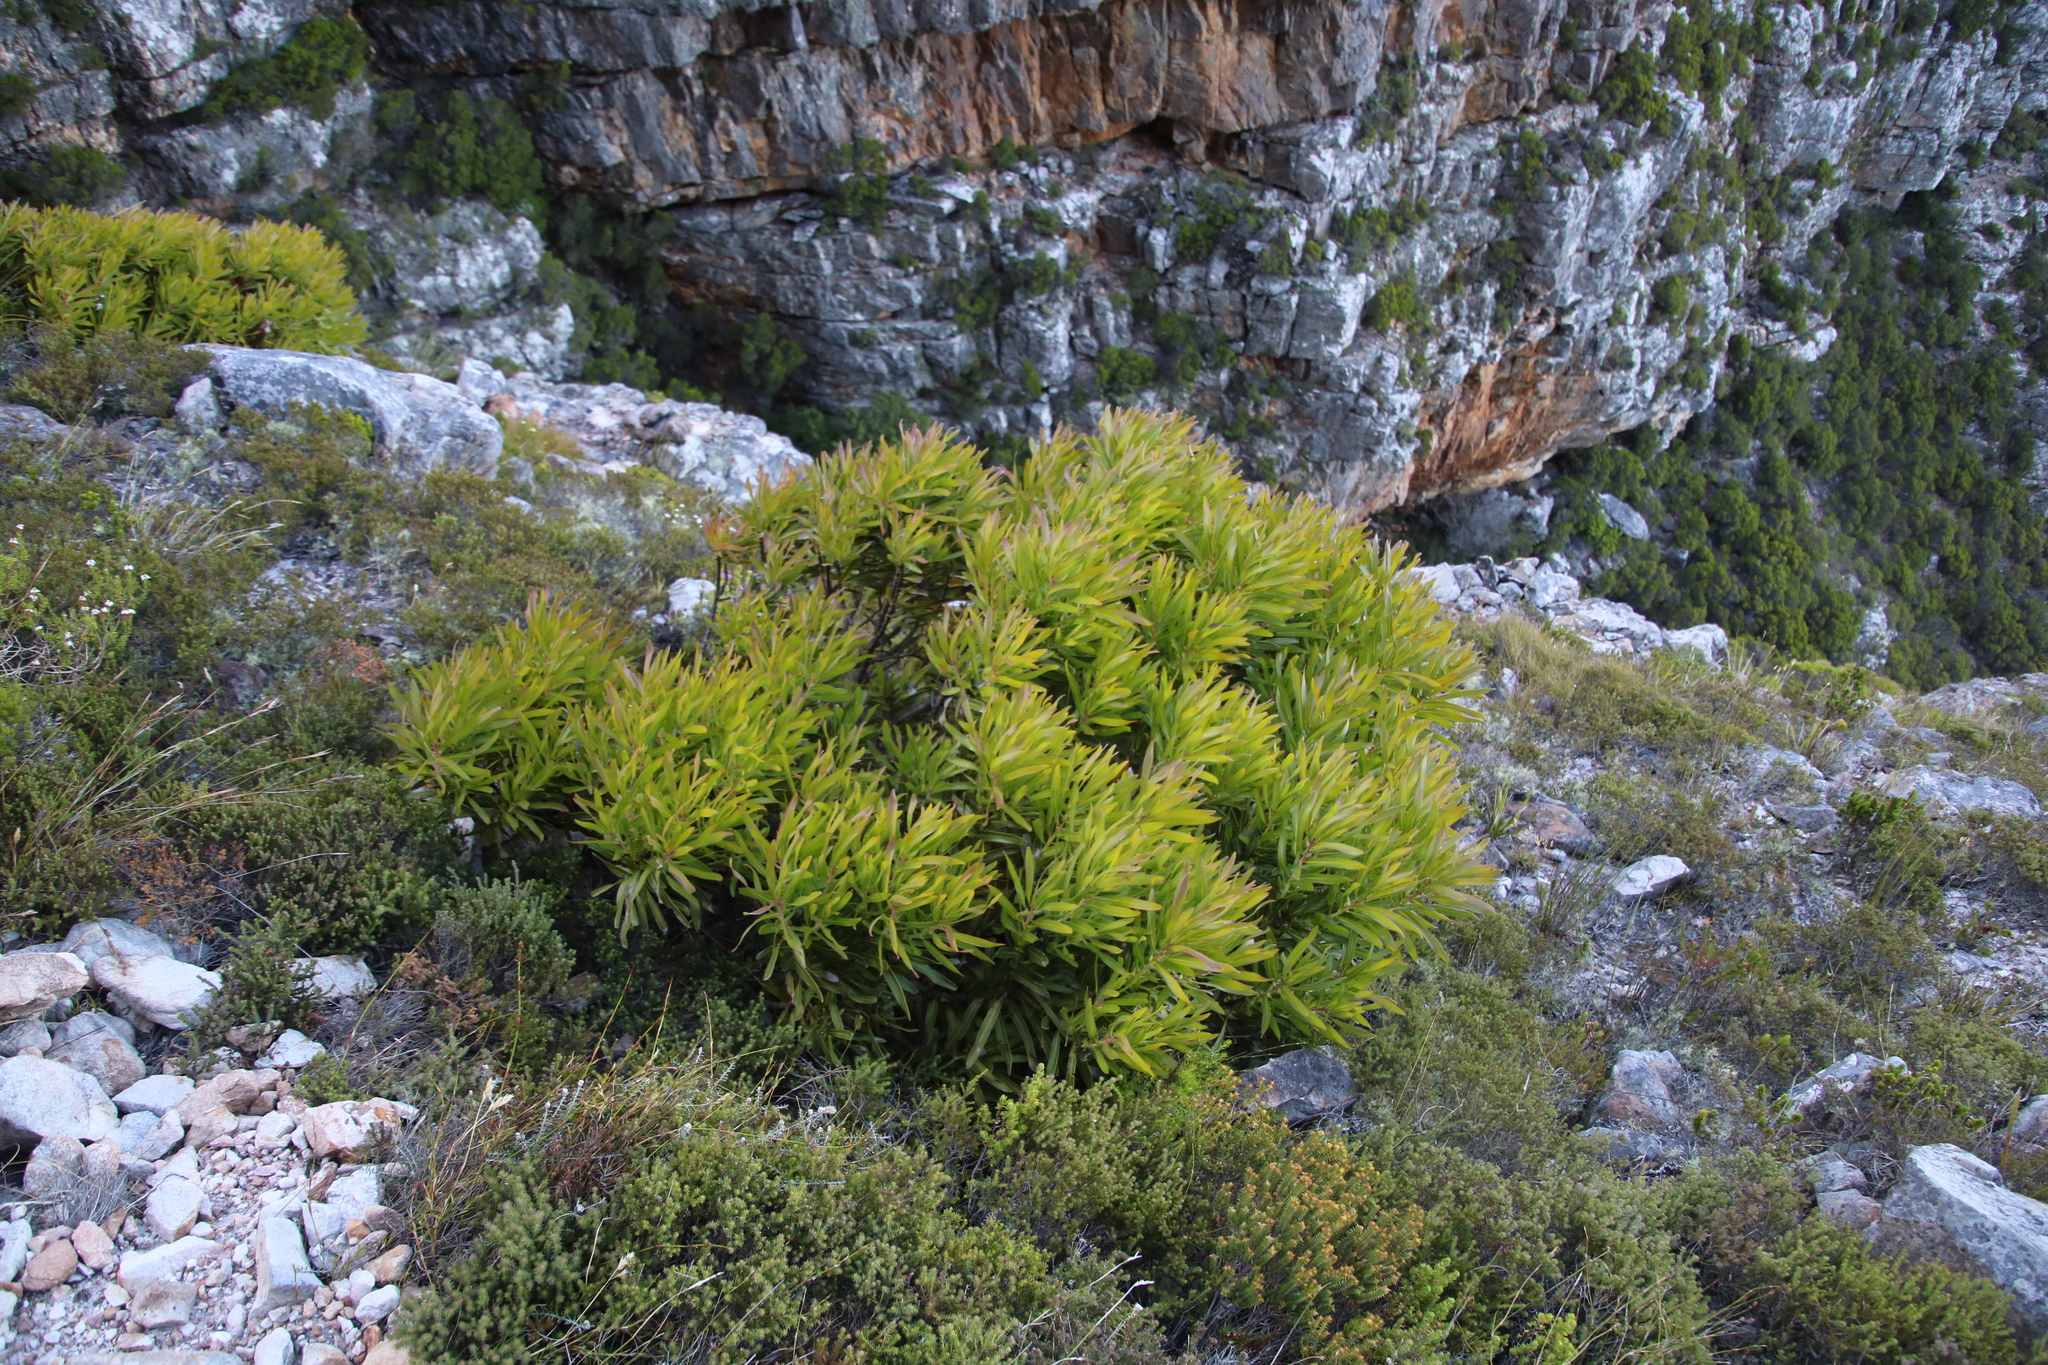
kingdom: Plantae
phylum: Tracheophyta
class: Magnoliopsida
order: Proteales
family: Proteaceae
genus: Protea
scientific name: Protea lepidocarpodendron
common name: Black-bearded protea
